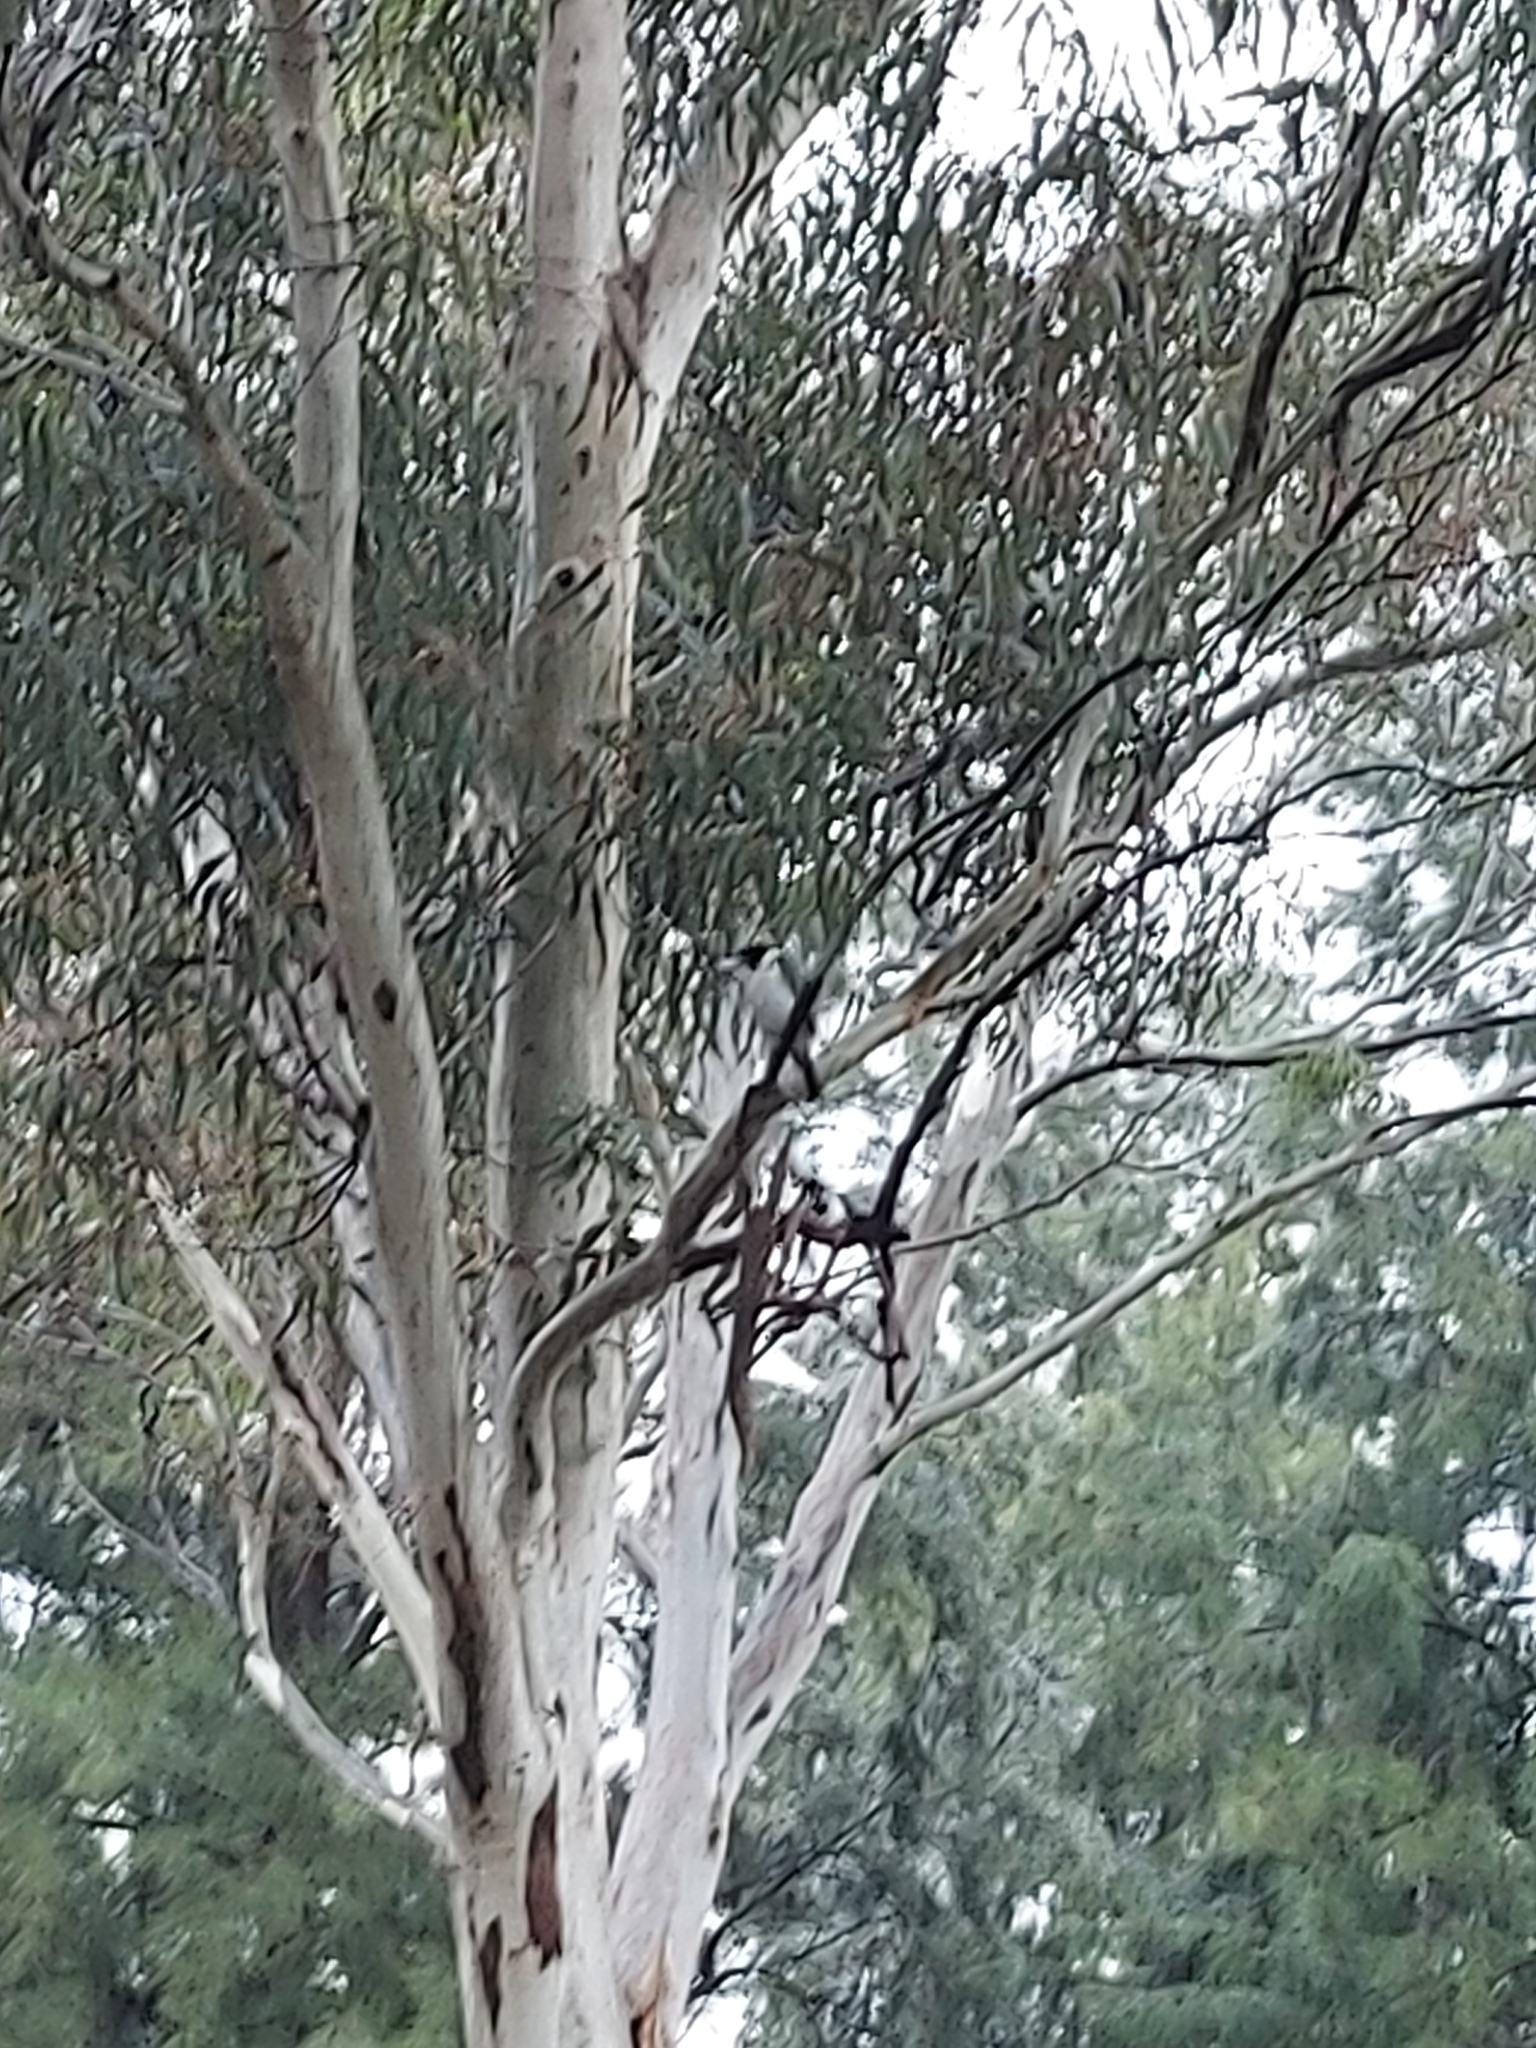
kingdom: Animalia
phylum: Chordata
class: Aves
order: Passeriformes
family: Cracticidae
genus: Cracticus
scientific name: Cracticus torquatus
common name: Grey butcherbird
